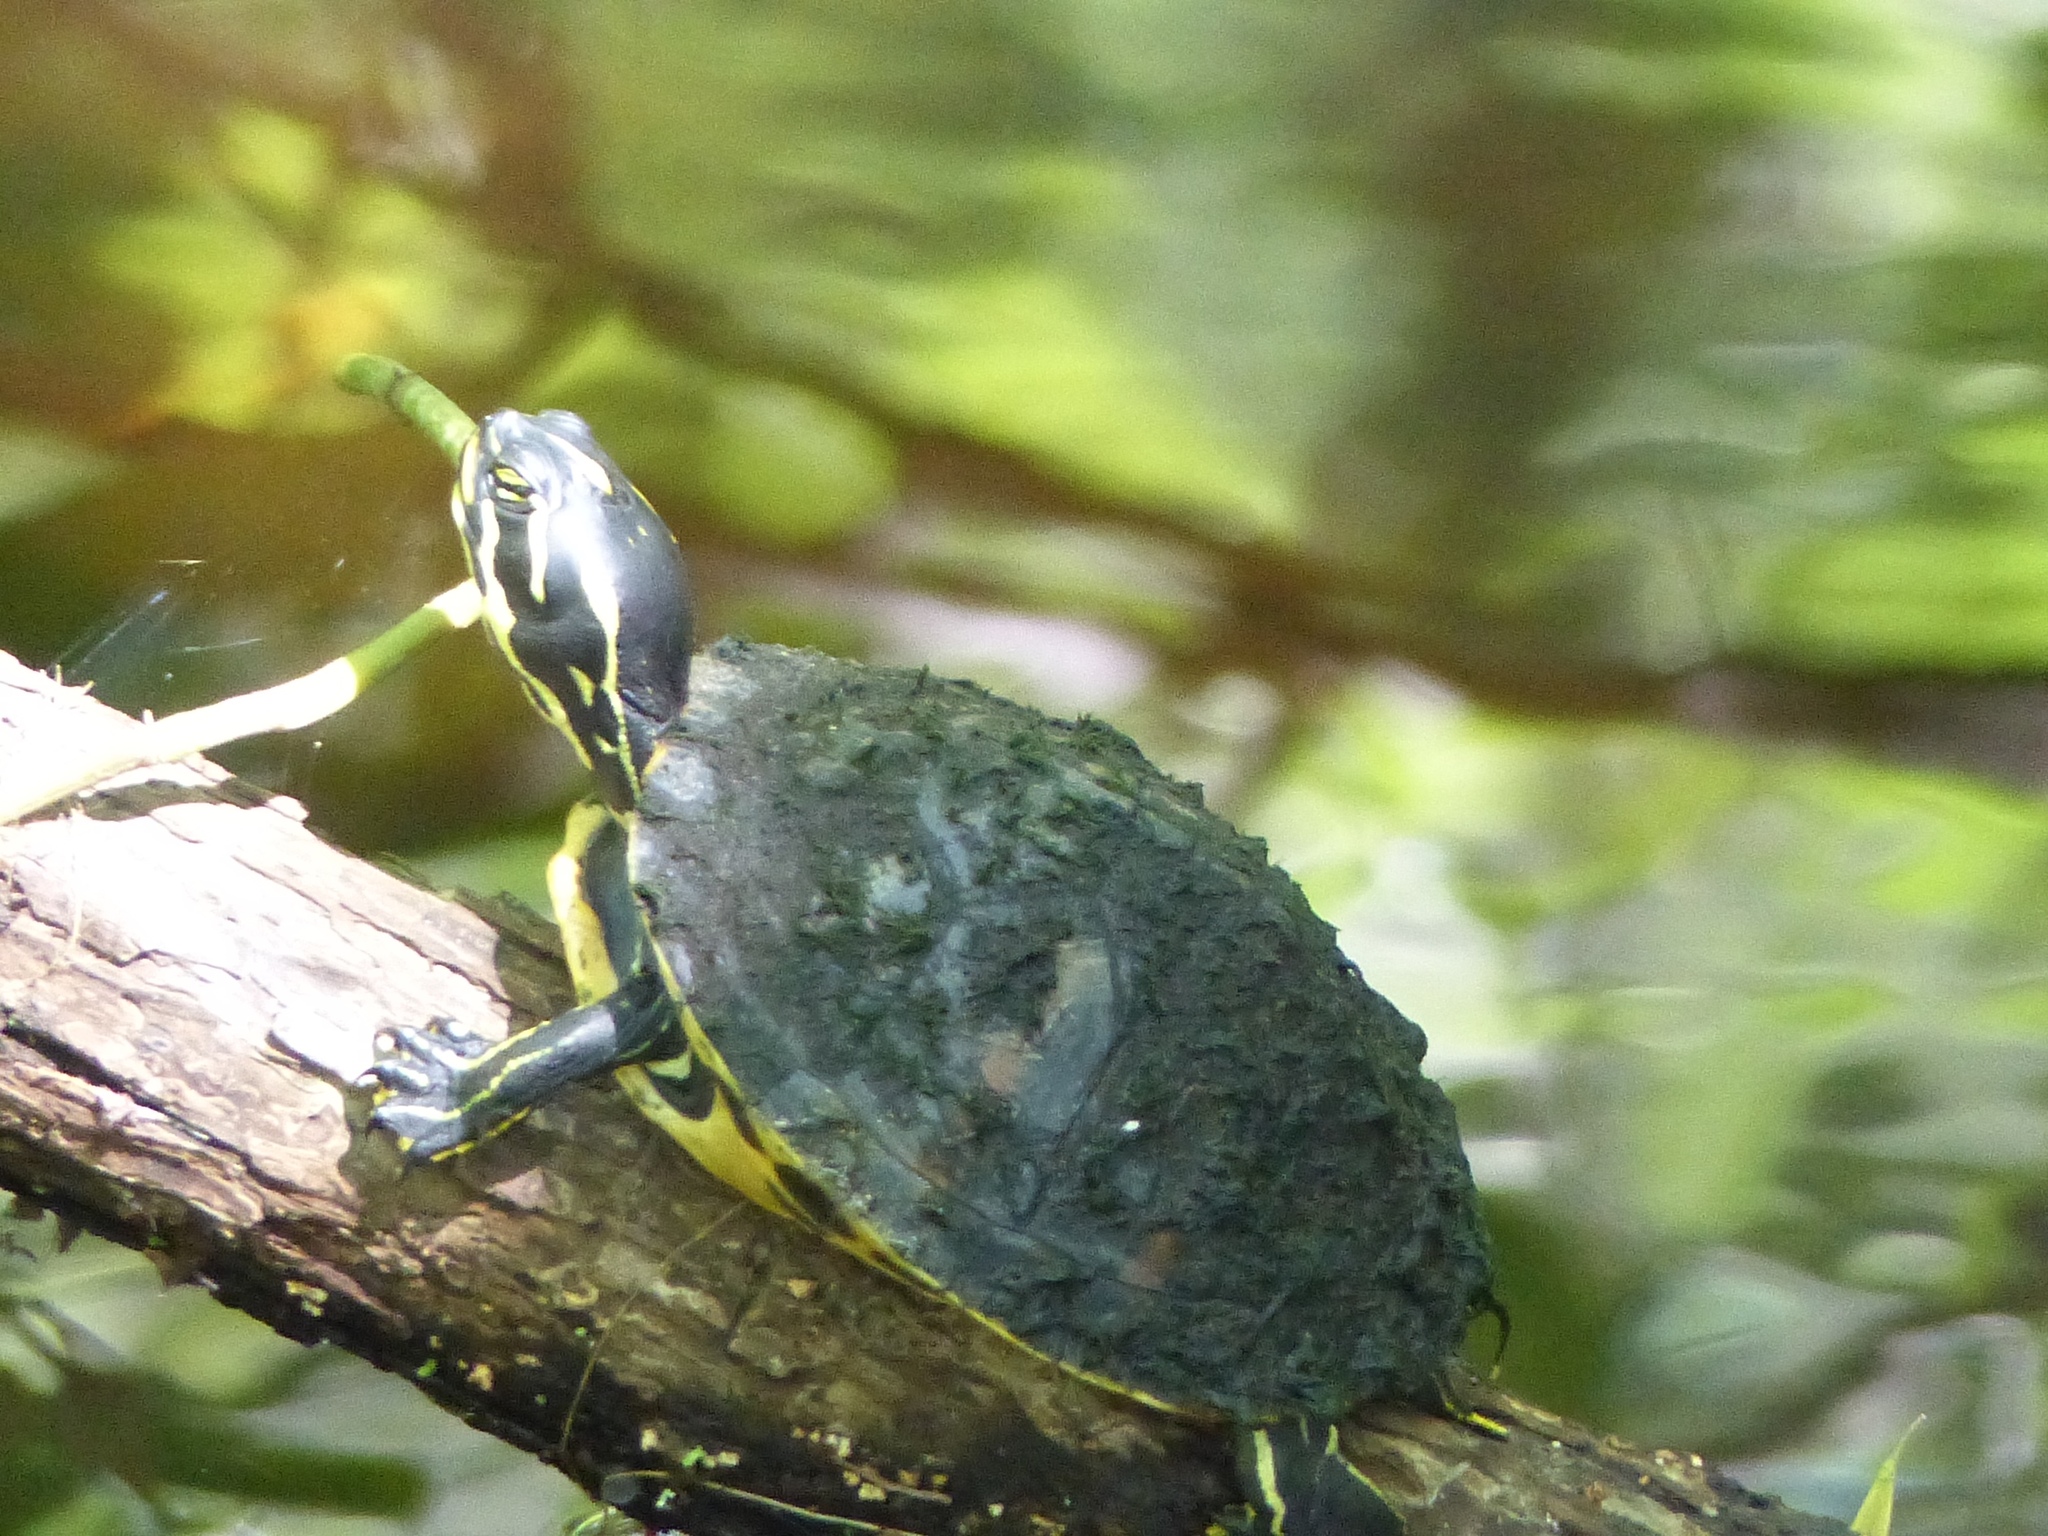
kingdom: Animalia
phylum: Chordata
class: Testudines
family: Emydidae
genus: Pseudemys
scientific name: Pseudemys nelsoni
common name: Florida red-bellied turtle
